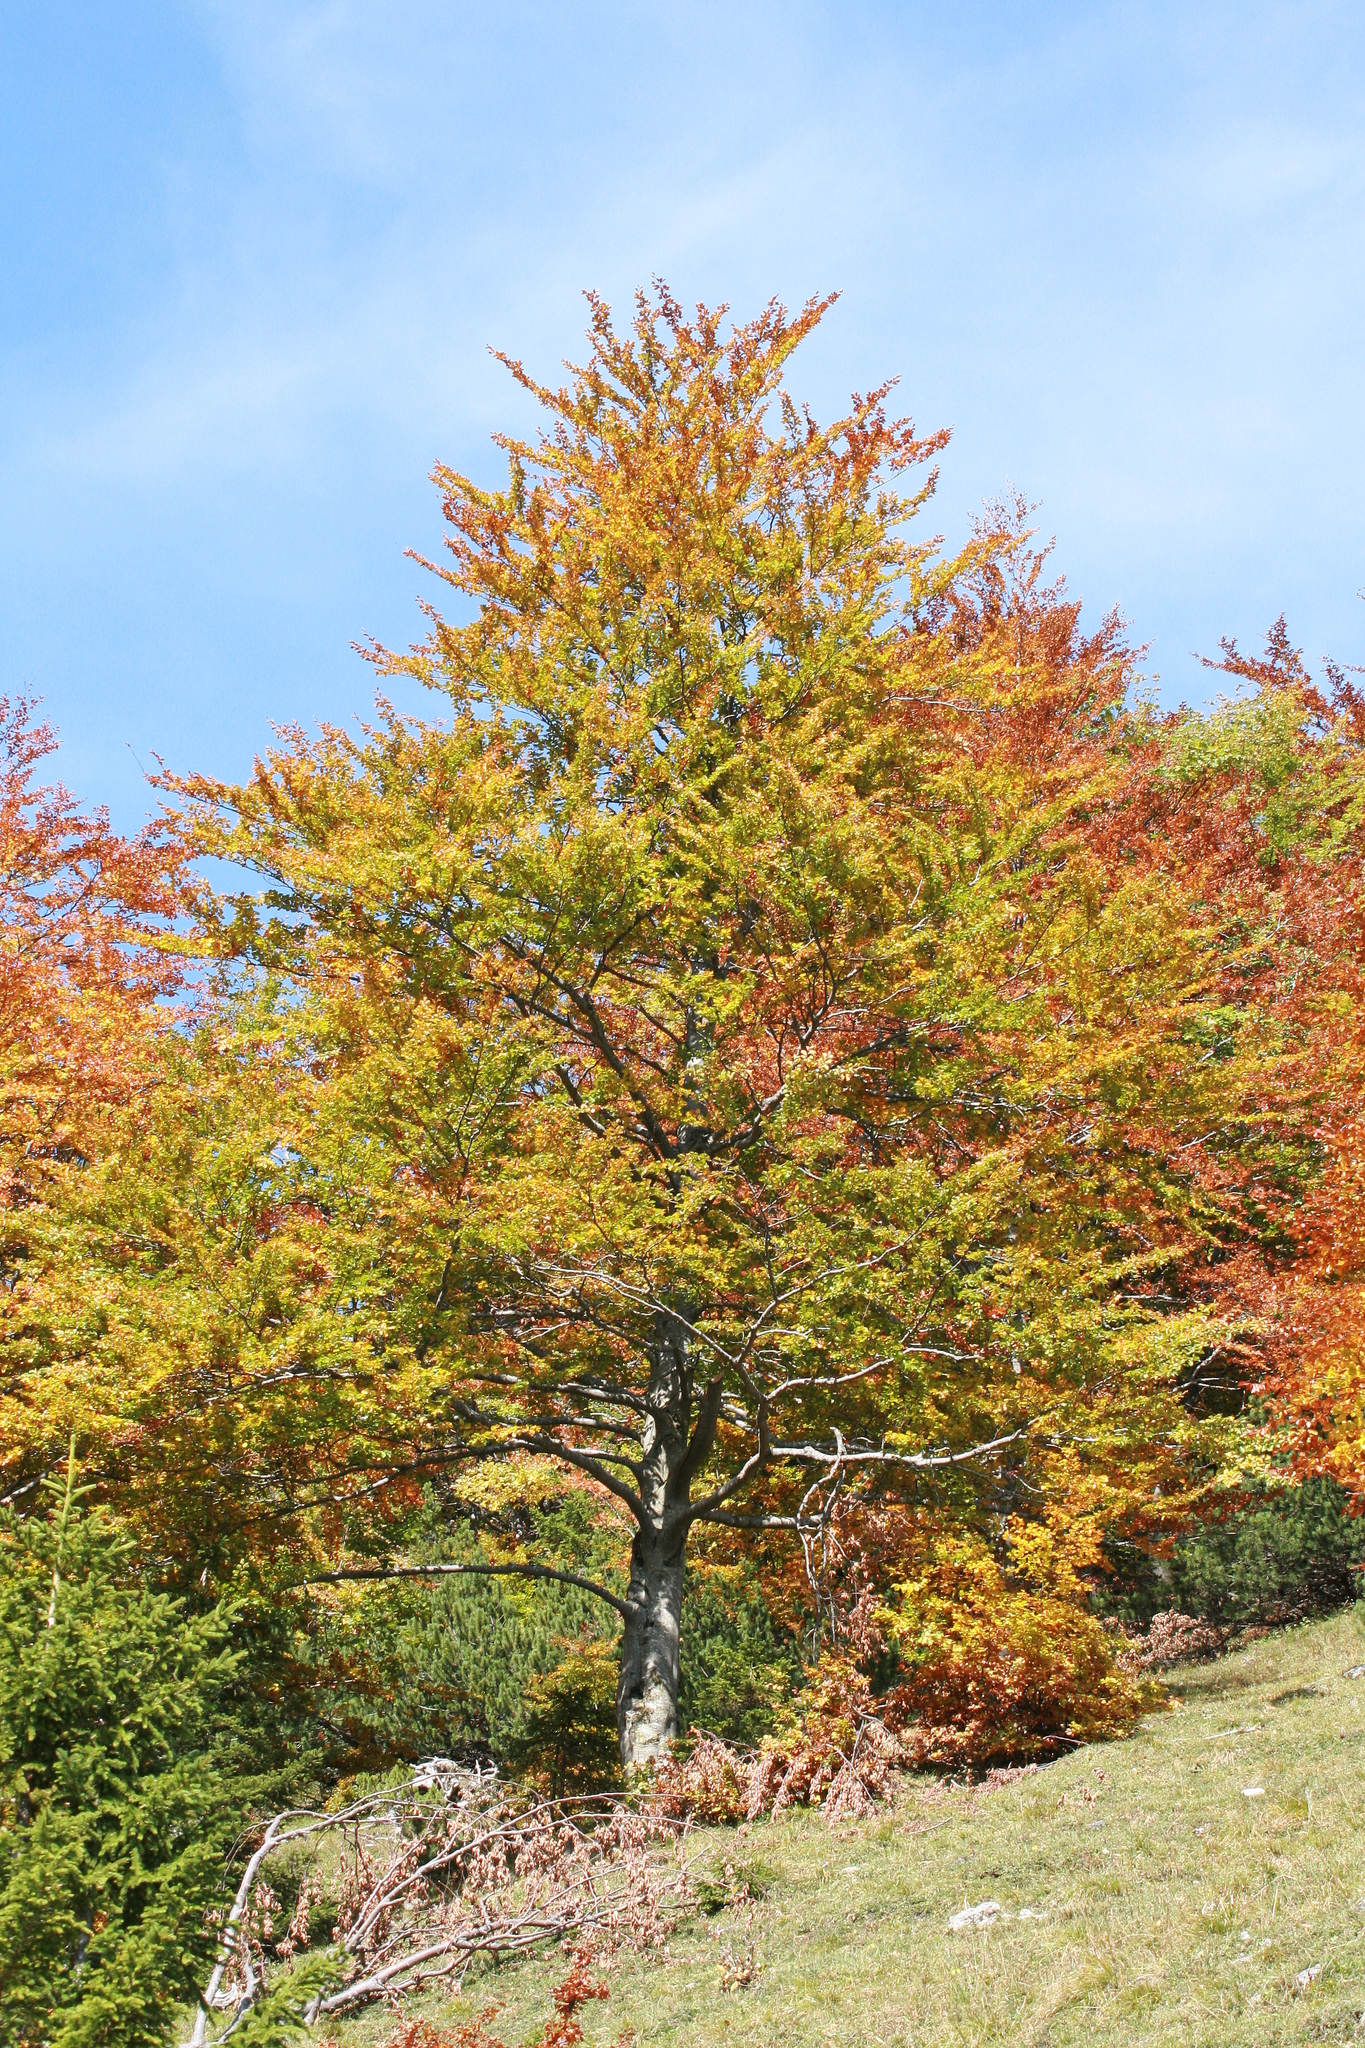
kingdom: Plantae
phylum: Tracheophyta
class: Magnoliopsida
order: Fagales
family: Fagaceae
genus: Fagus
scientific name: Fagus sylvatica
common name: Beech
